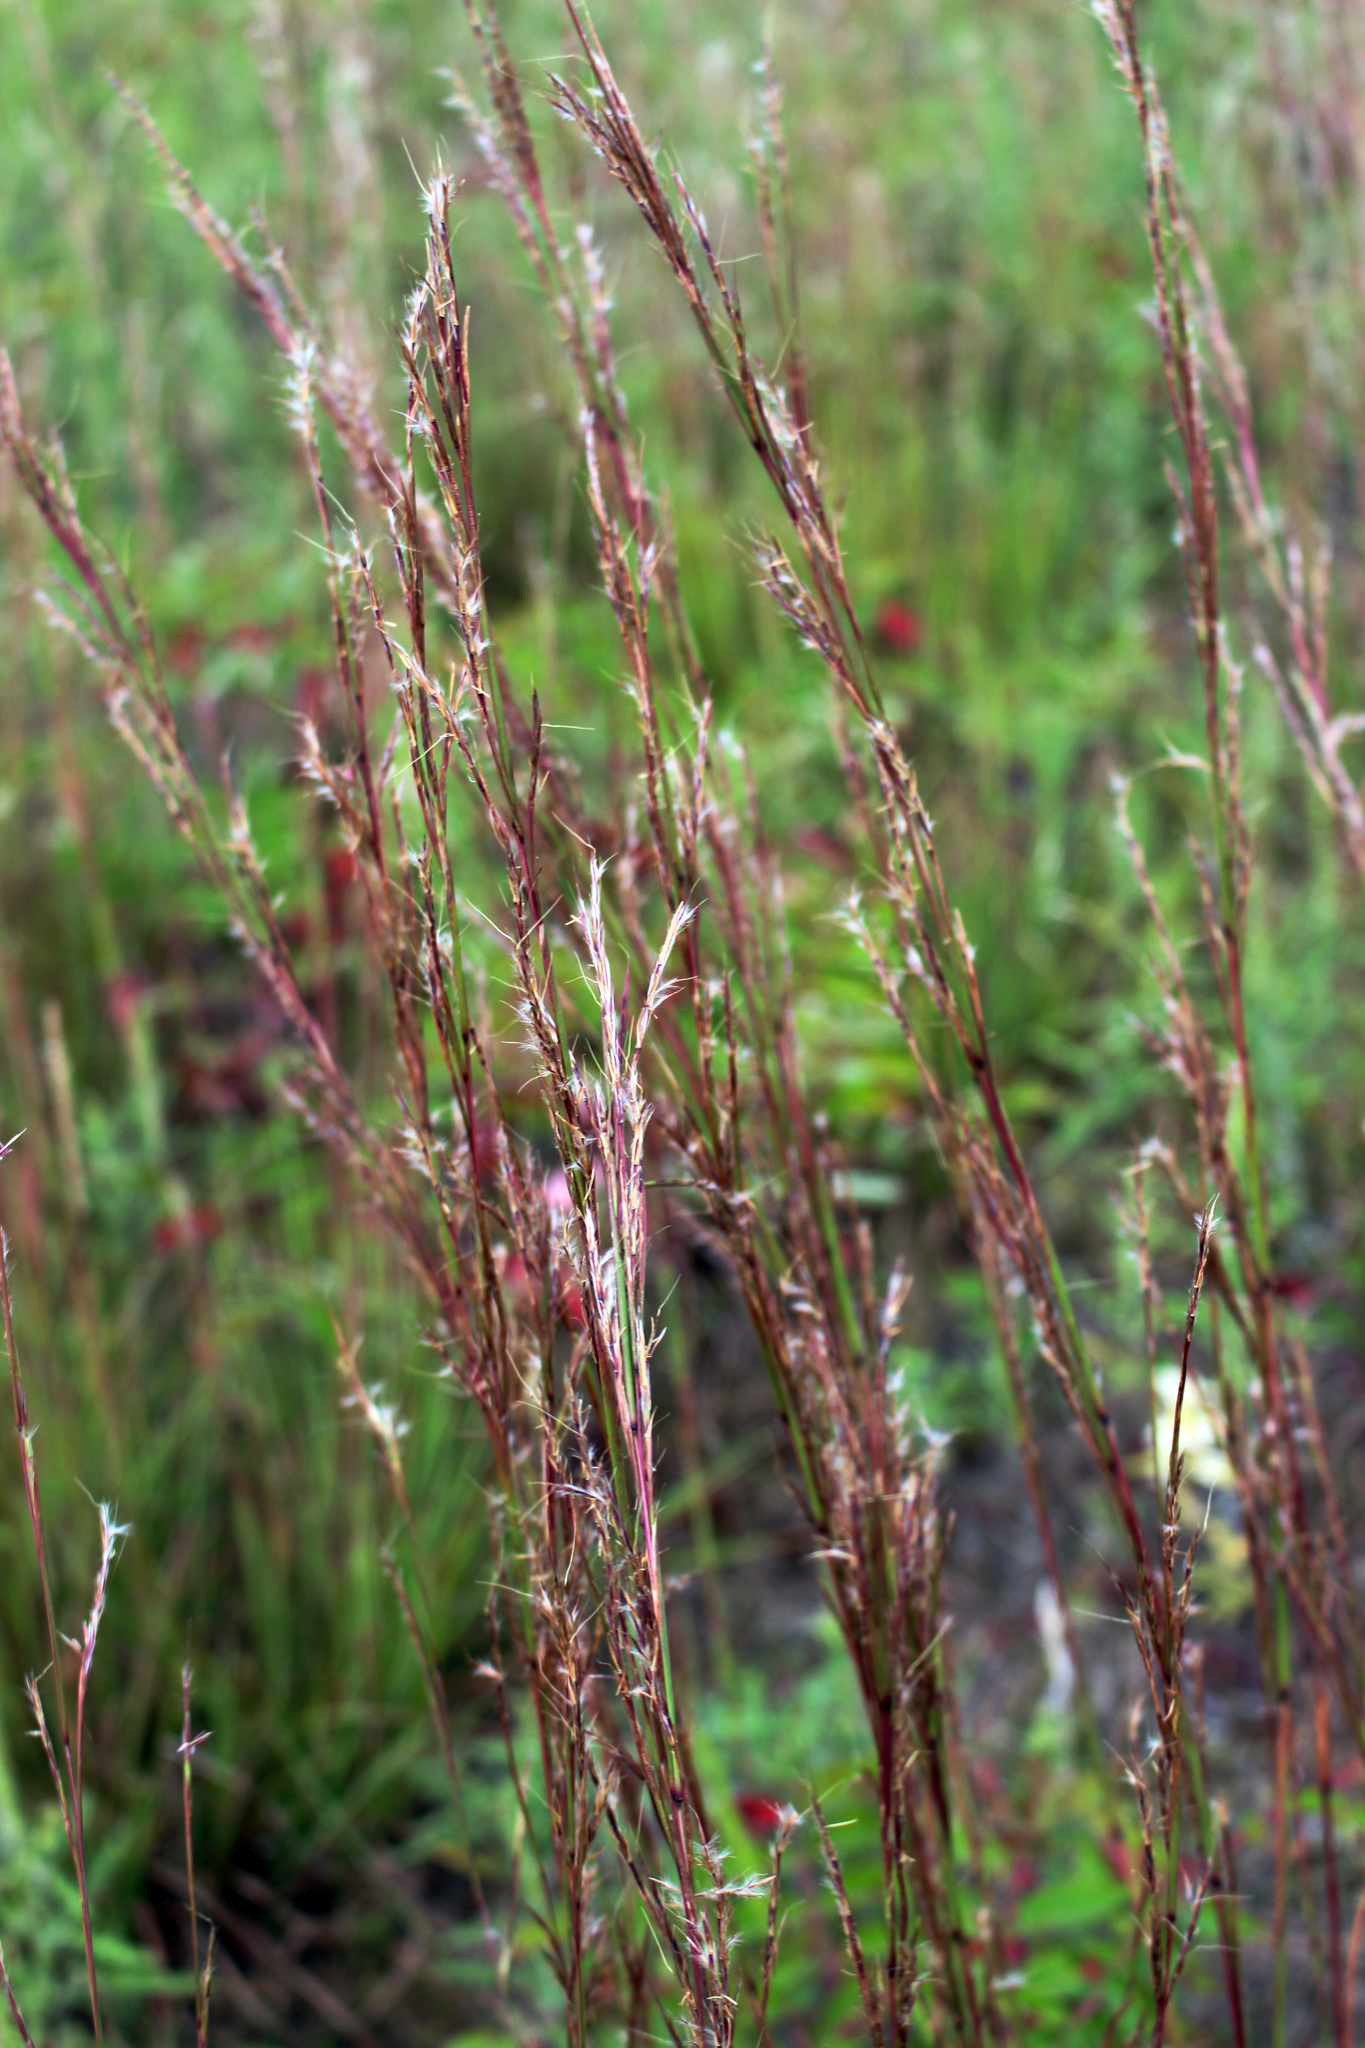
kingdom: Plantae
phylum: Tracheophyta
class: Liliopsida
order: Poales
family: Poaceae
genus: Schizachyrium
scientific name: Schizachyrium scoparium
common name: Little bluestem
